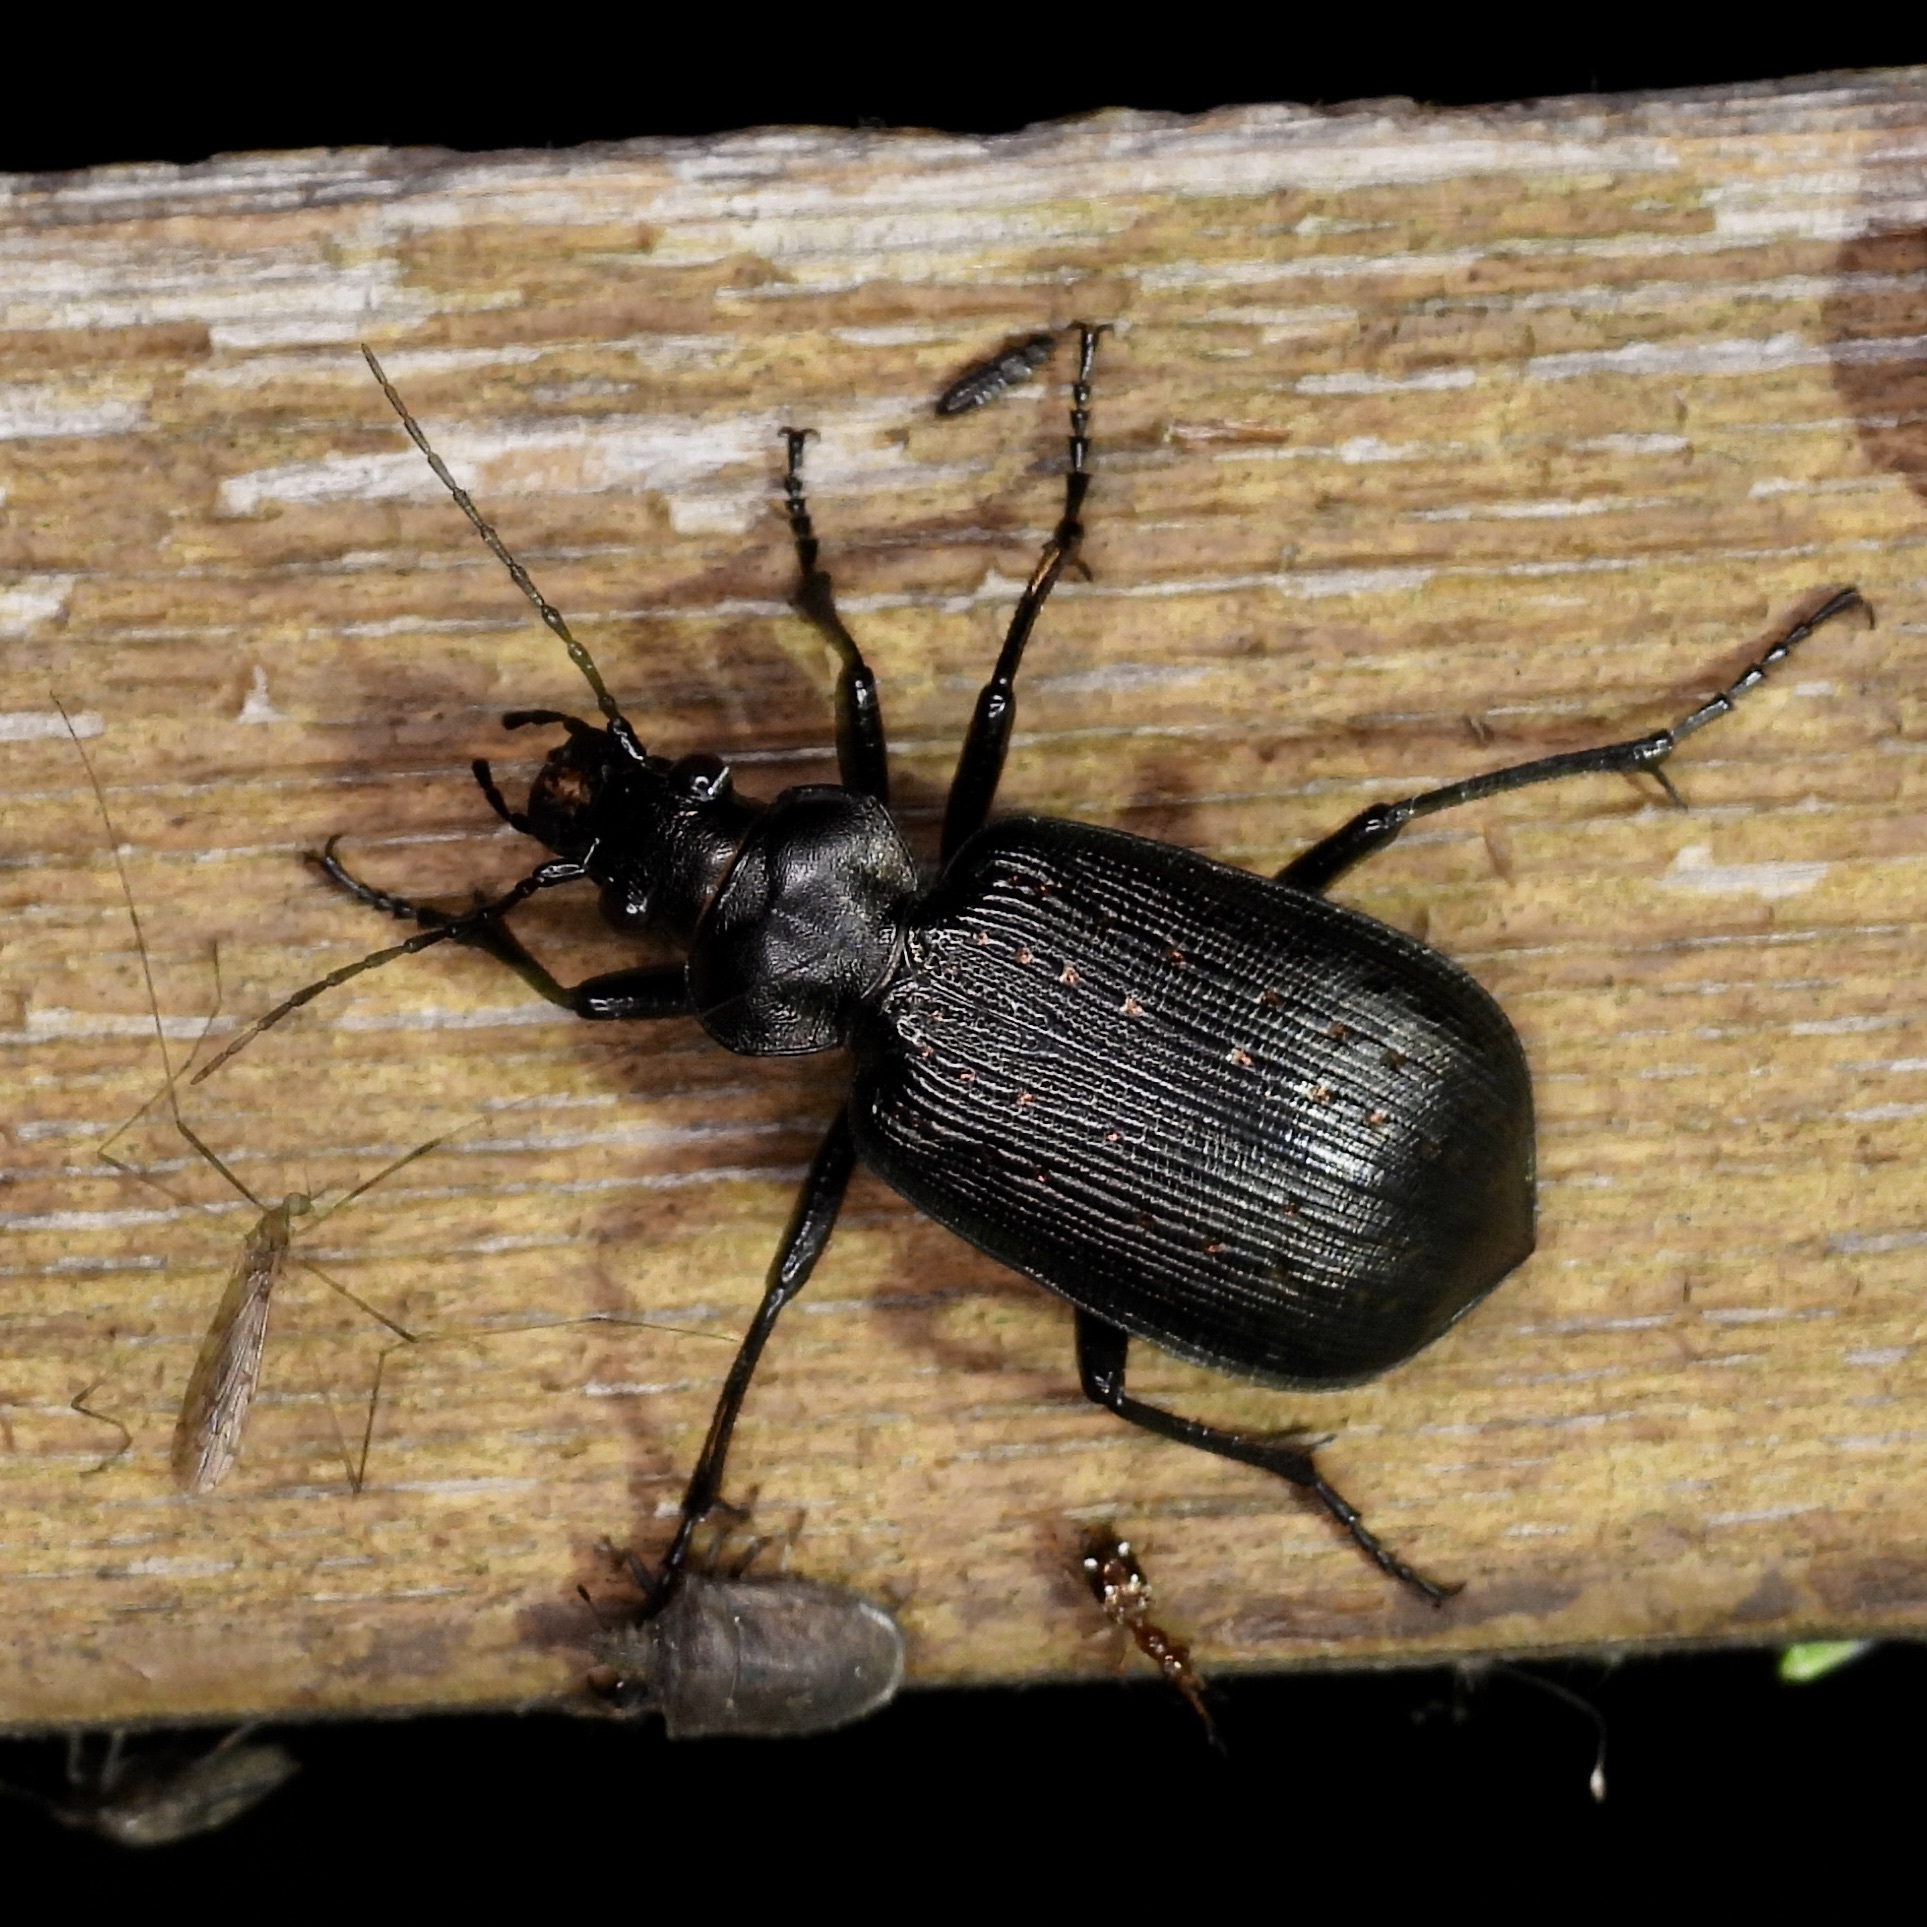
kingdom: Animalia
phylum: Arthropoda
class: Insecta
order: Coleoptera
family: Carabidae
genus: Calosoma
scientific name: Calosoma sayi
